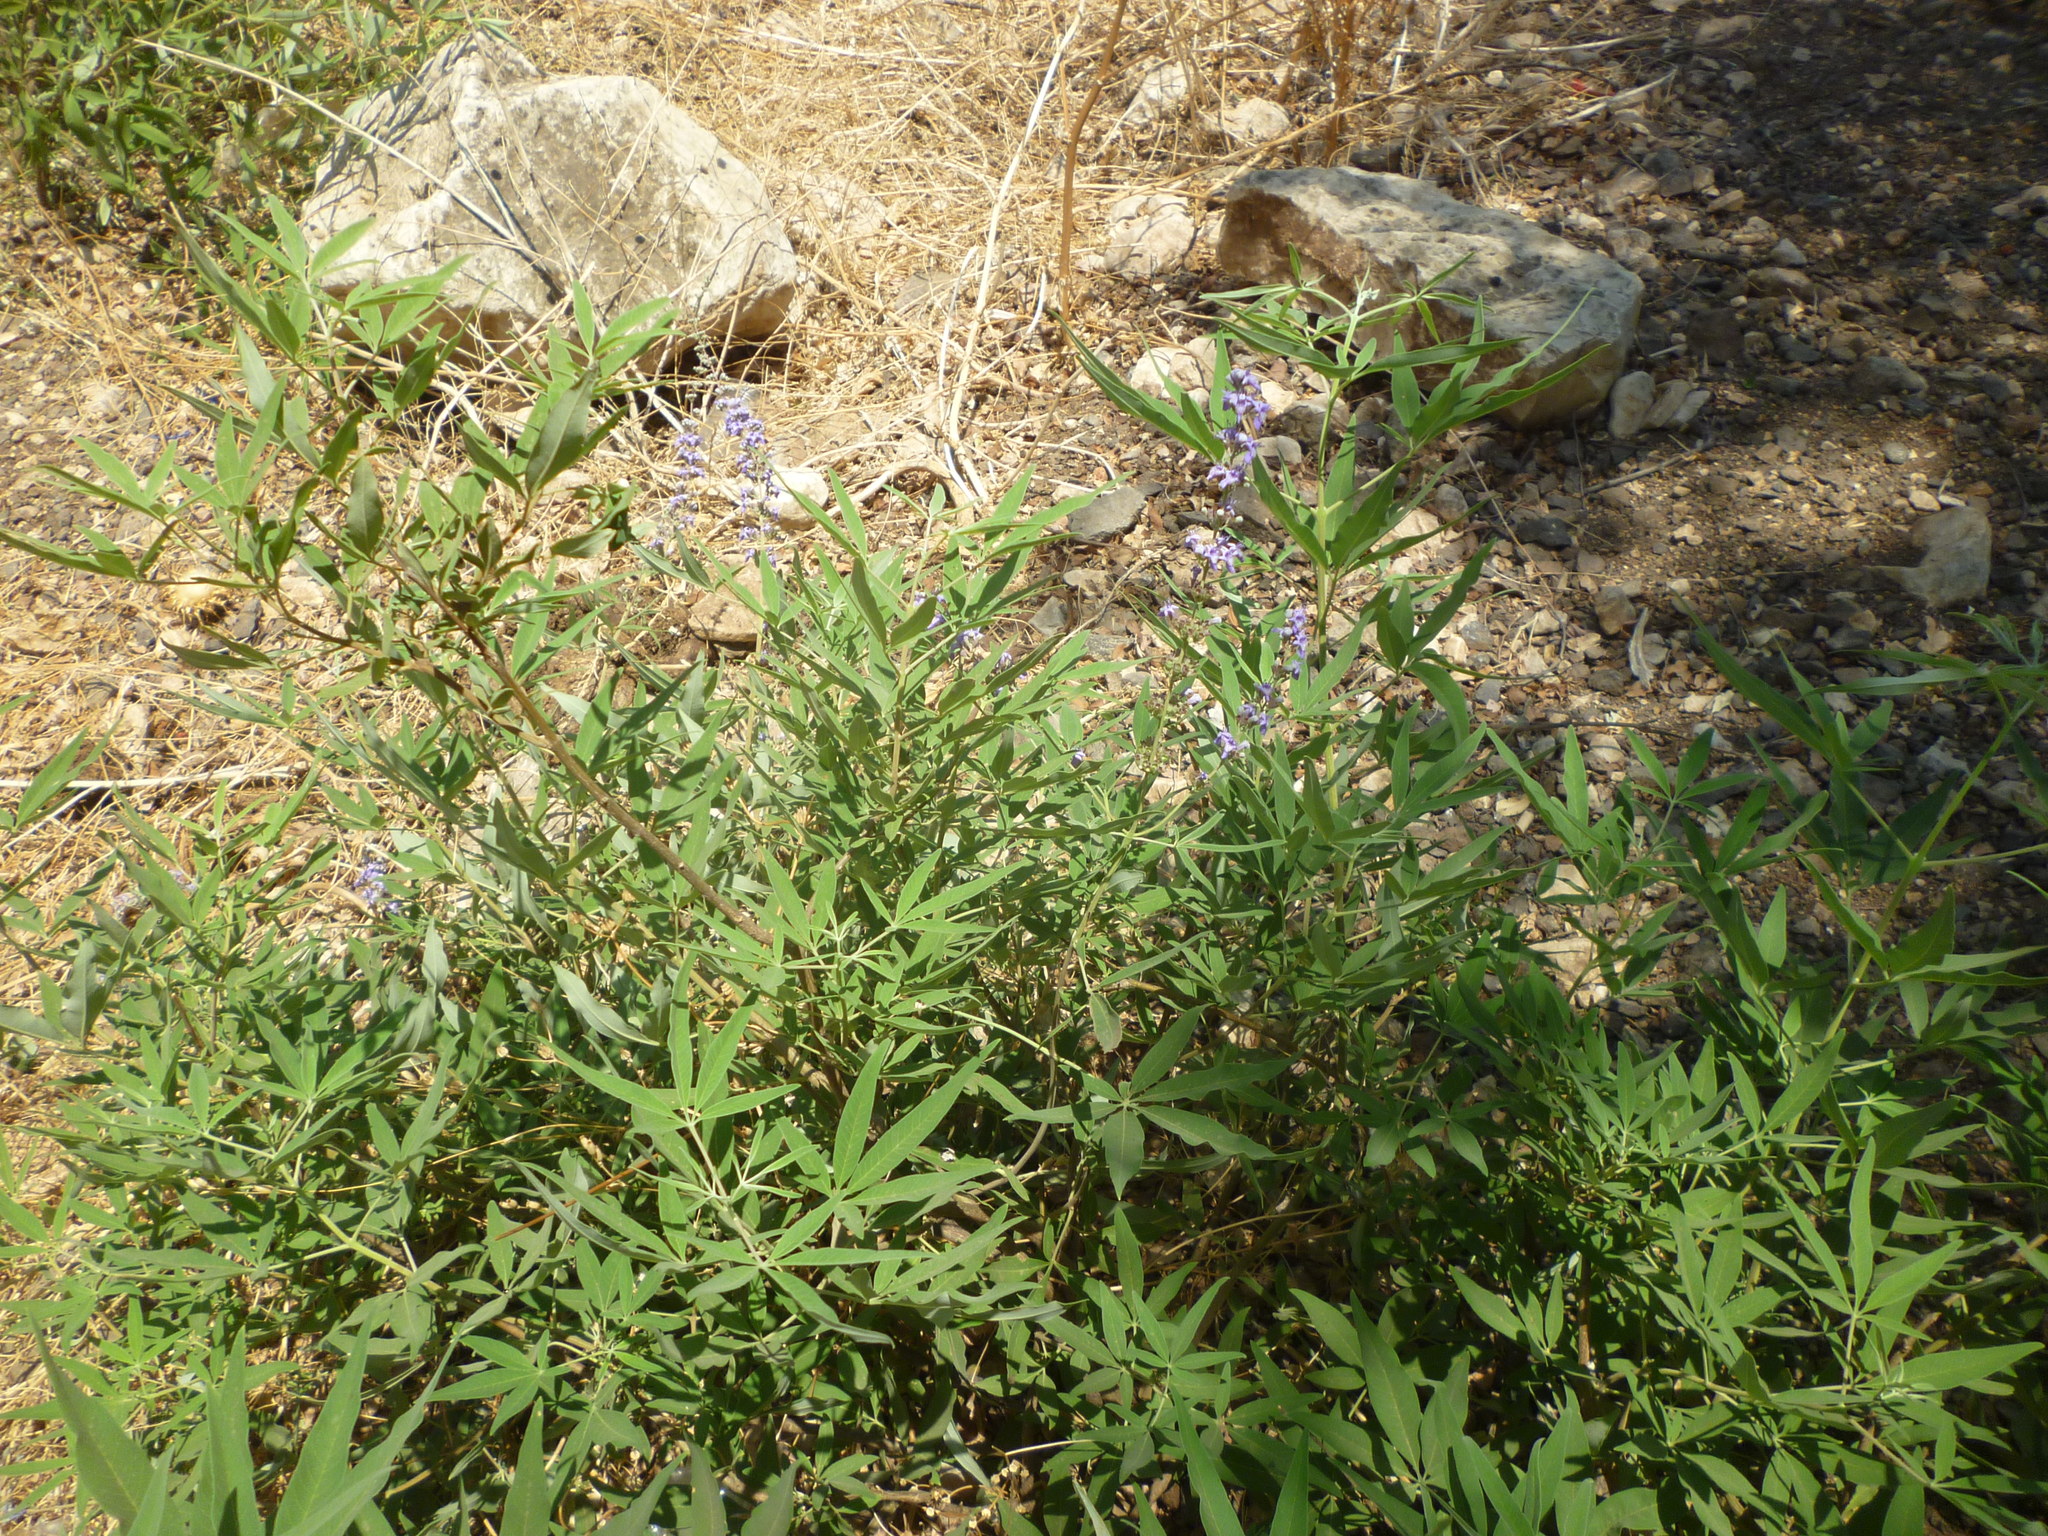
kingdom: Plantae
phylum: Tracheophyta
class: Magnoliopsida
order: Lamiales
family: Lamiaceae
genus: Vitex
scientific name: Vitex agnus-castus
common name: Chasteberry
